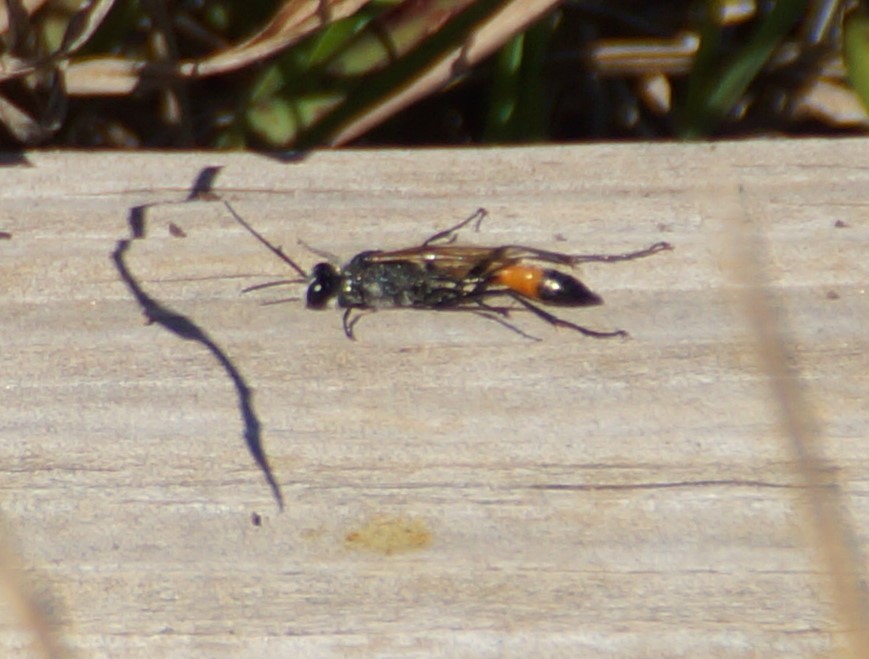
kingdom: Animalia
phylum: Arthropoda
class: Insecta
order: Hymenoptera
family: Sphecidae
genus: Podalonia
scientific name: Podalonia tydei
